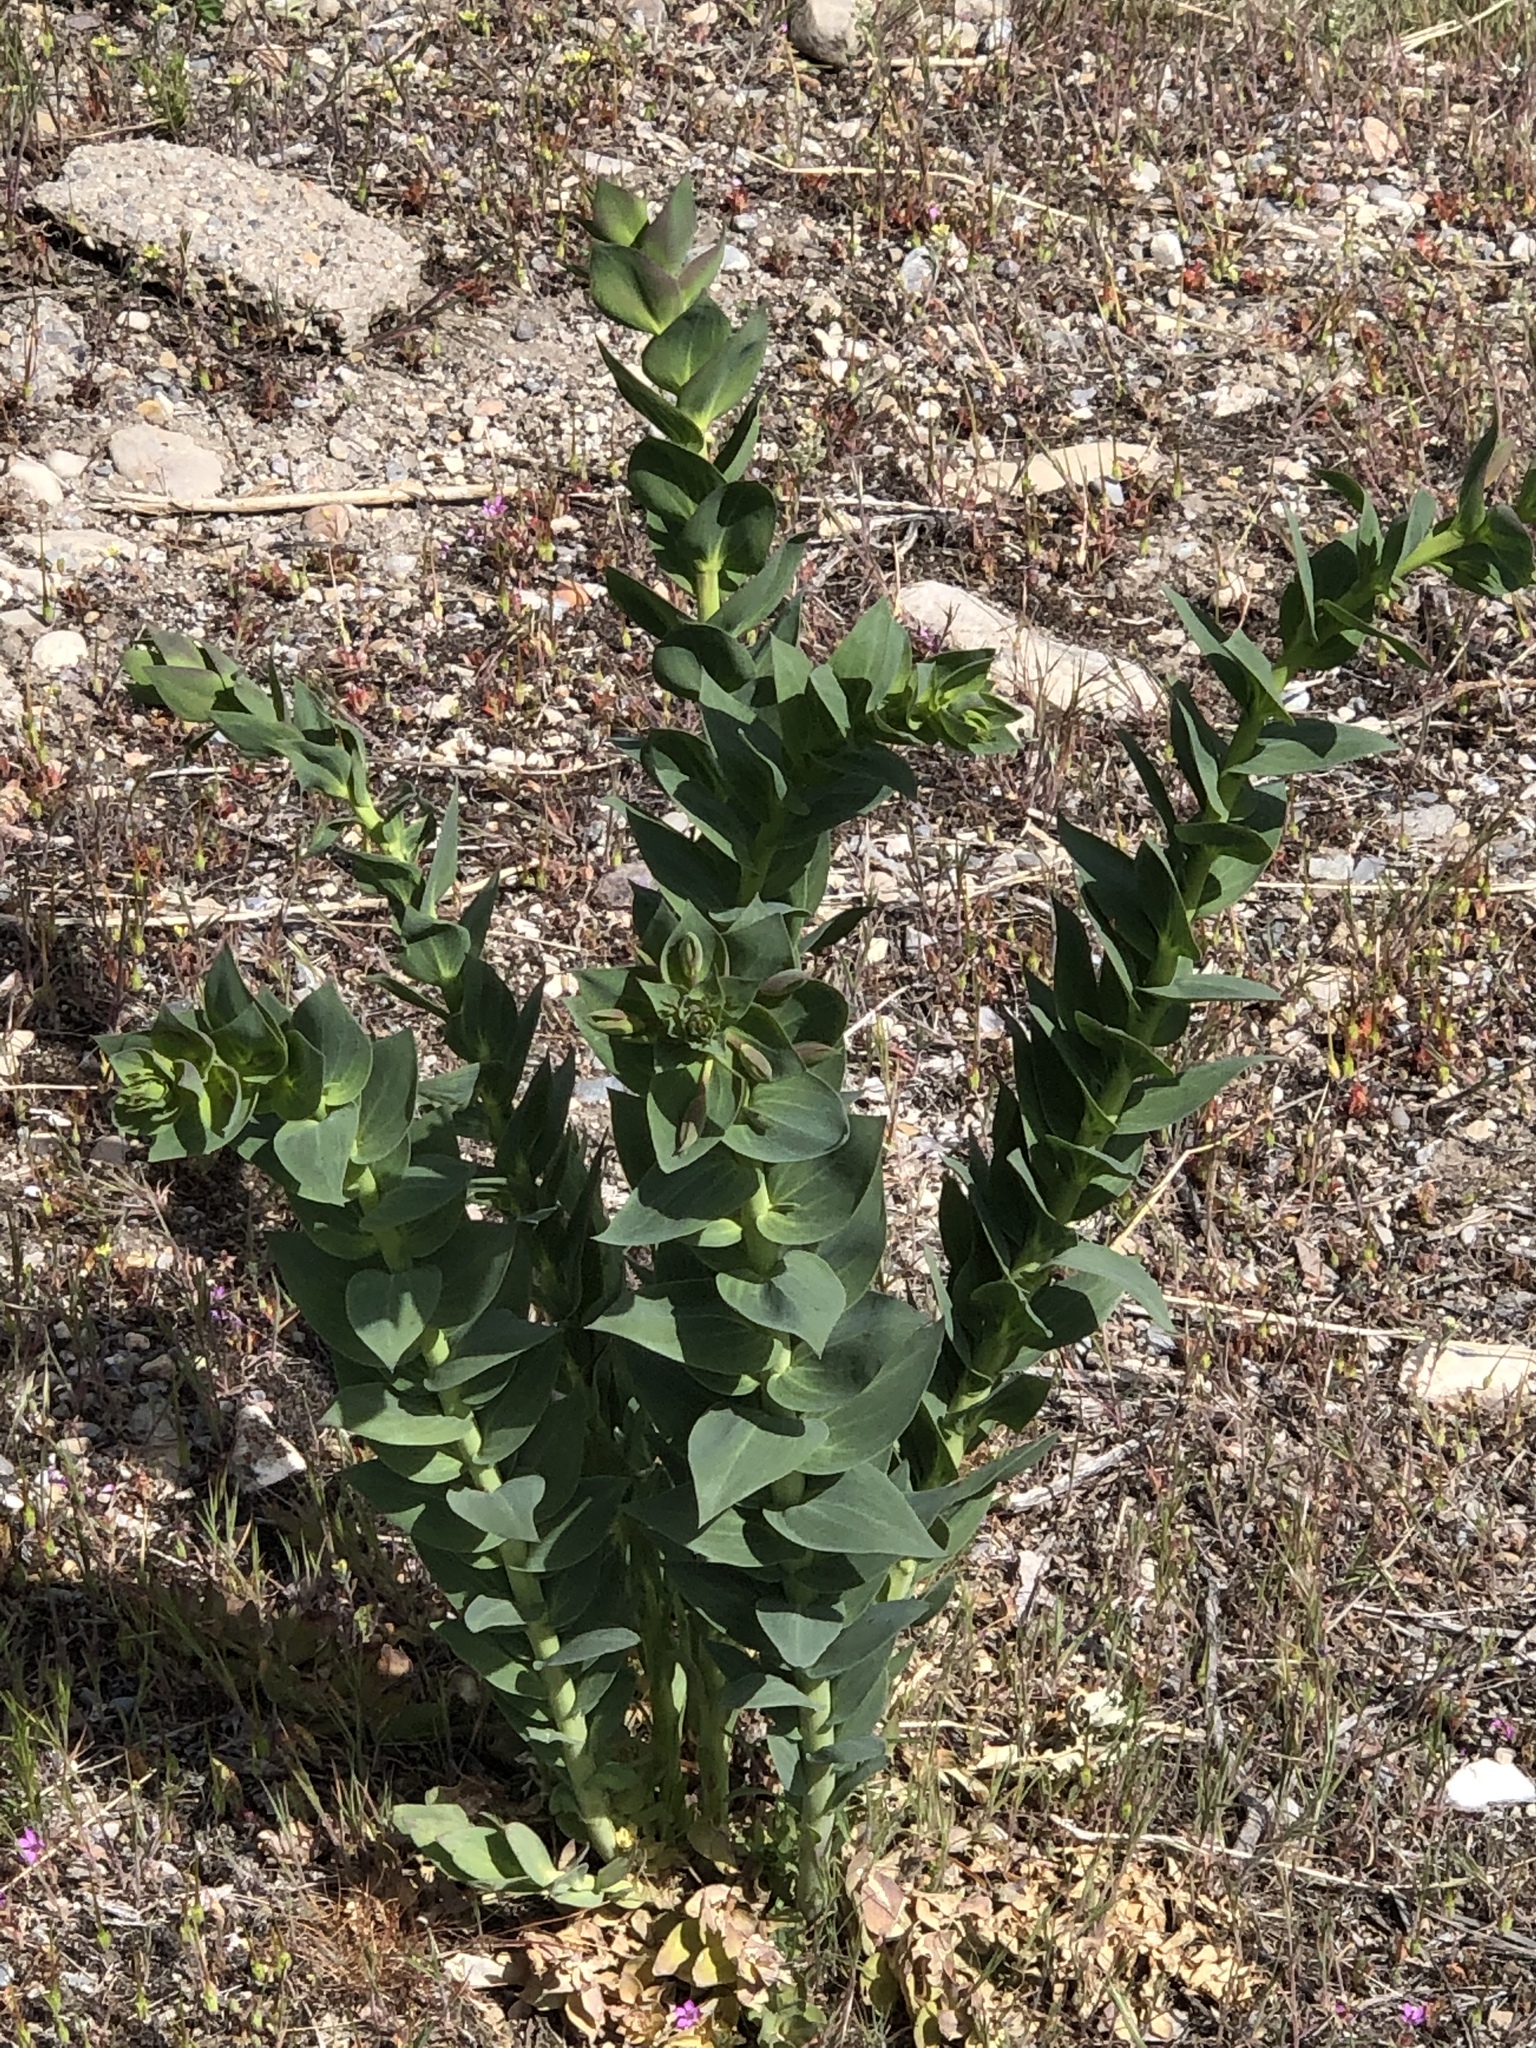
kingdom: Plantae
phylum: Tracheophyta
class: Magnoliopsida
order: Lamiales
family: Plantaginaceae
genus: Linaria
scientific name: Linaria dalmatica
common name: Dalmatian toadflax
